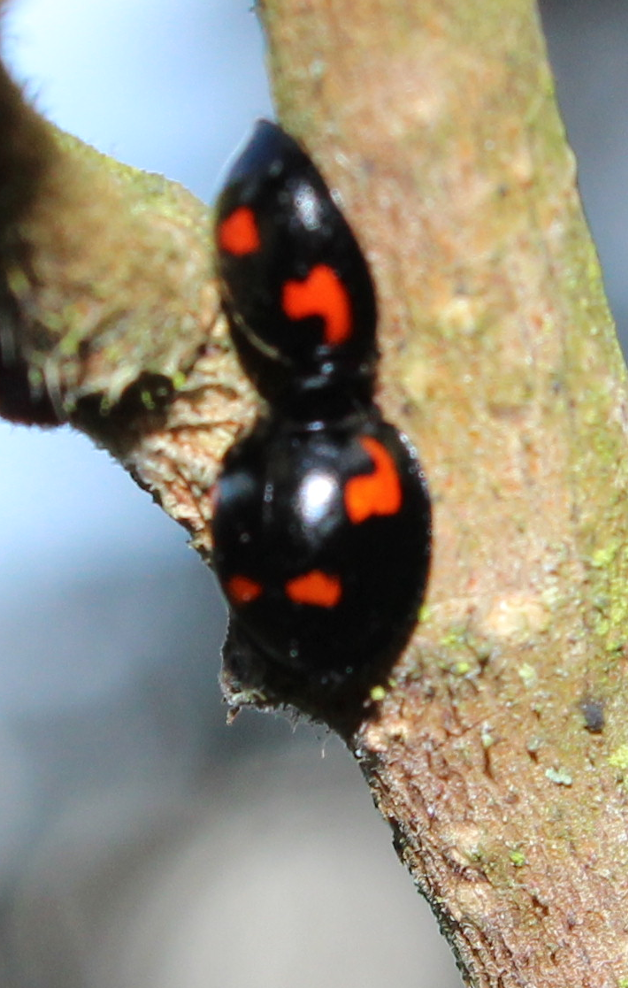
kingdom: Animalia
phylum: Arthropoda
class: Insecta
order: Coleoptera
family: Coccinellidae
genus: Brumus
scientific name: Brumus quadripustulatus
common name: Ladybird beetle
